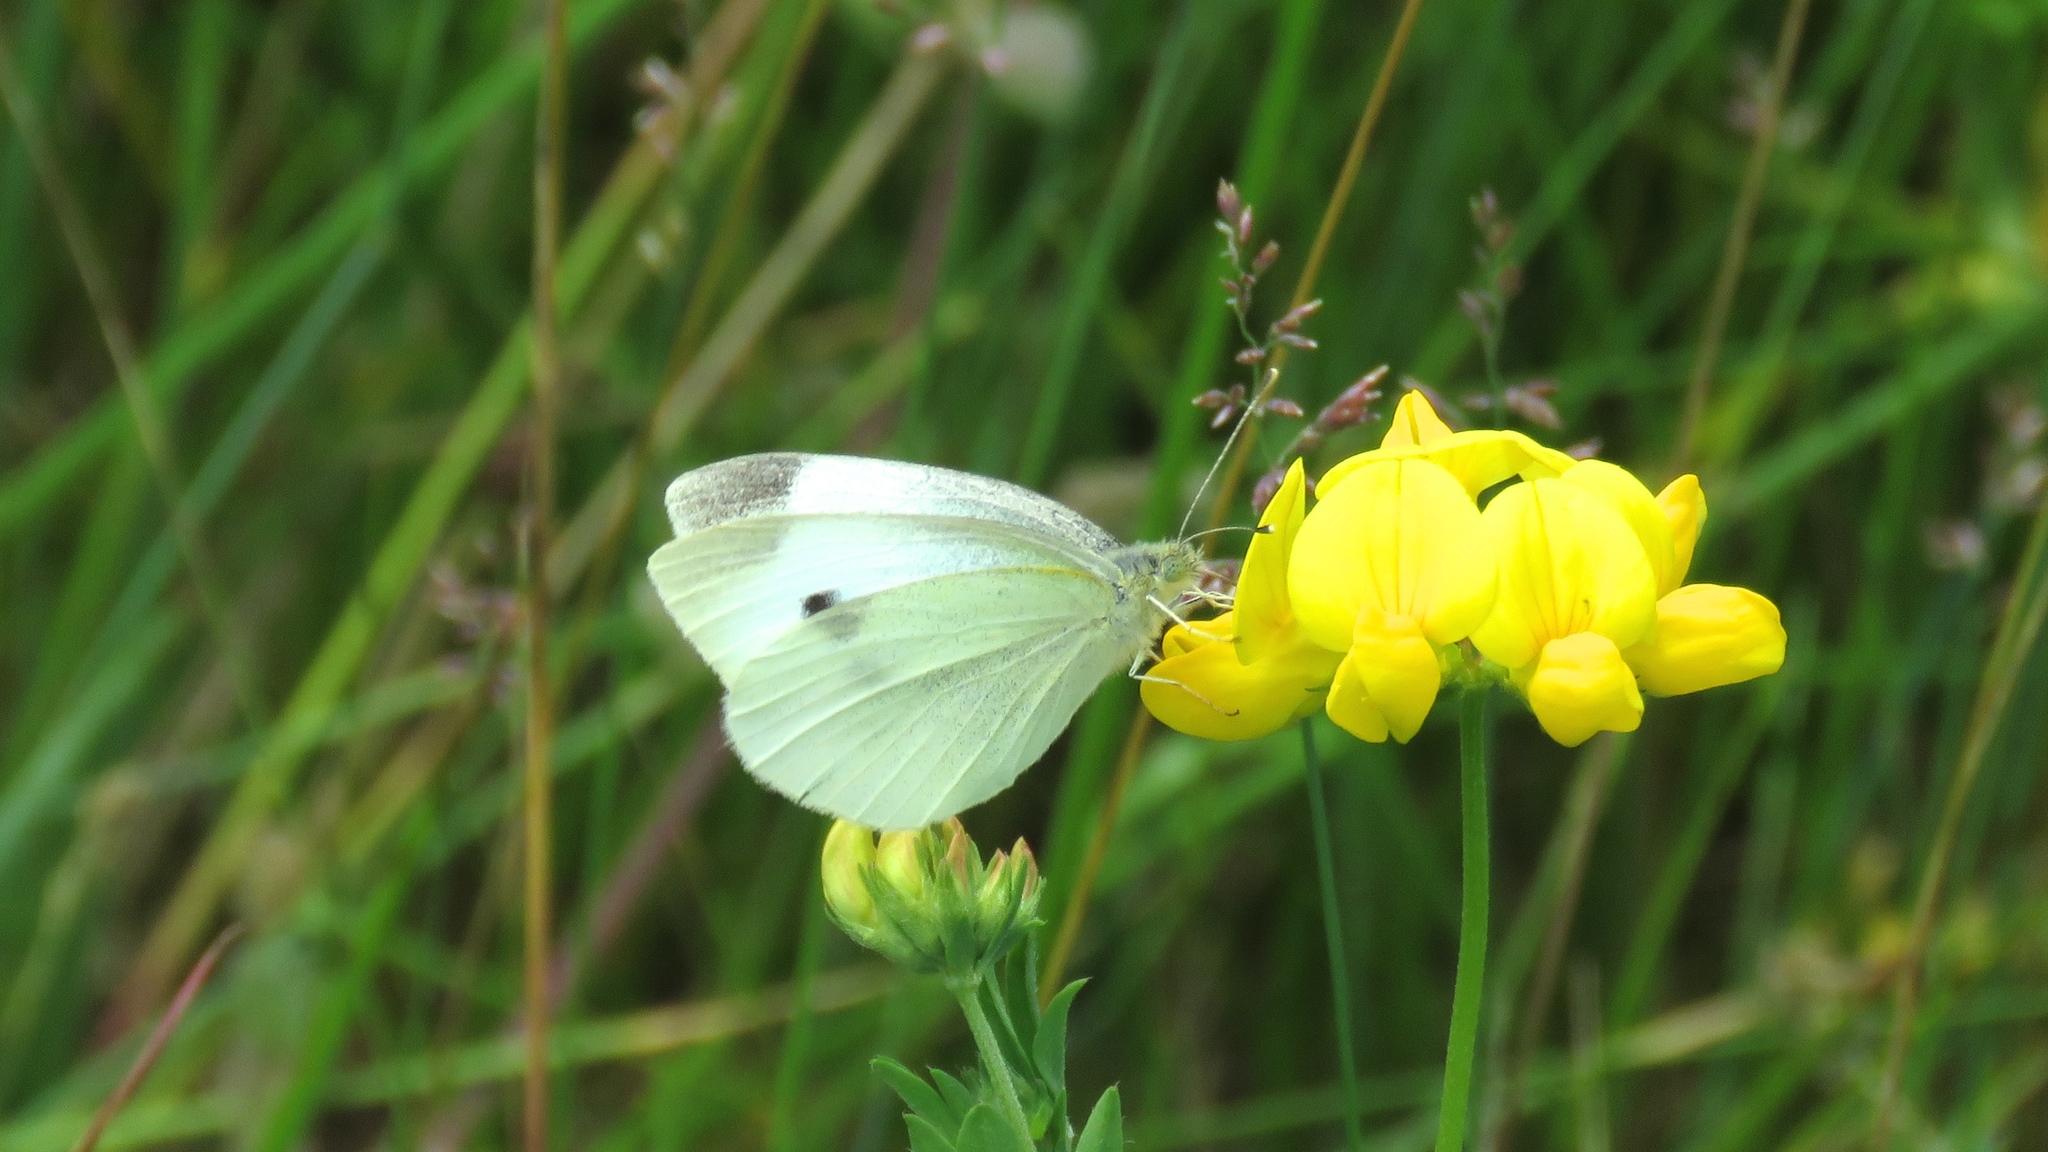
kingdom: Animalia
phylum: Arthropoda
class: Insecta
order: Lepidoptera
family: Pieridae
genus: Pieris
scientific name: Pieris rapae
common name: Small white
